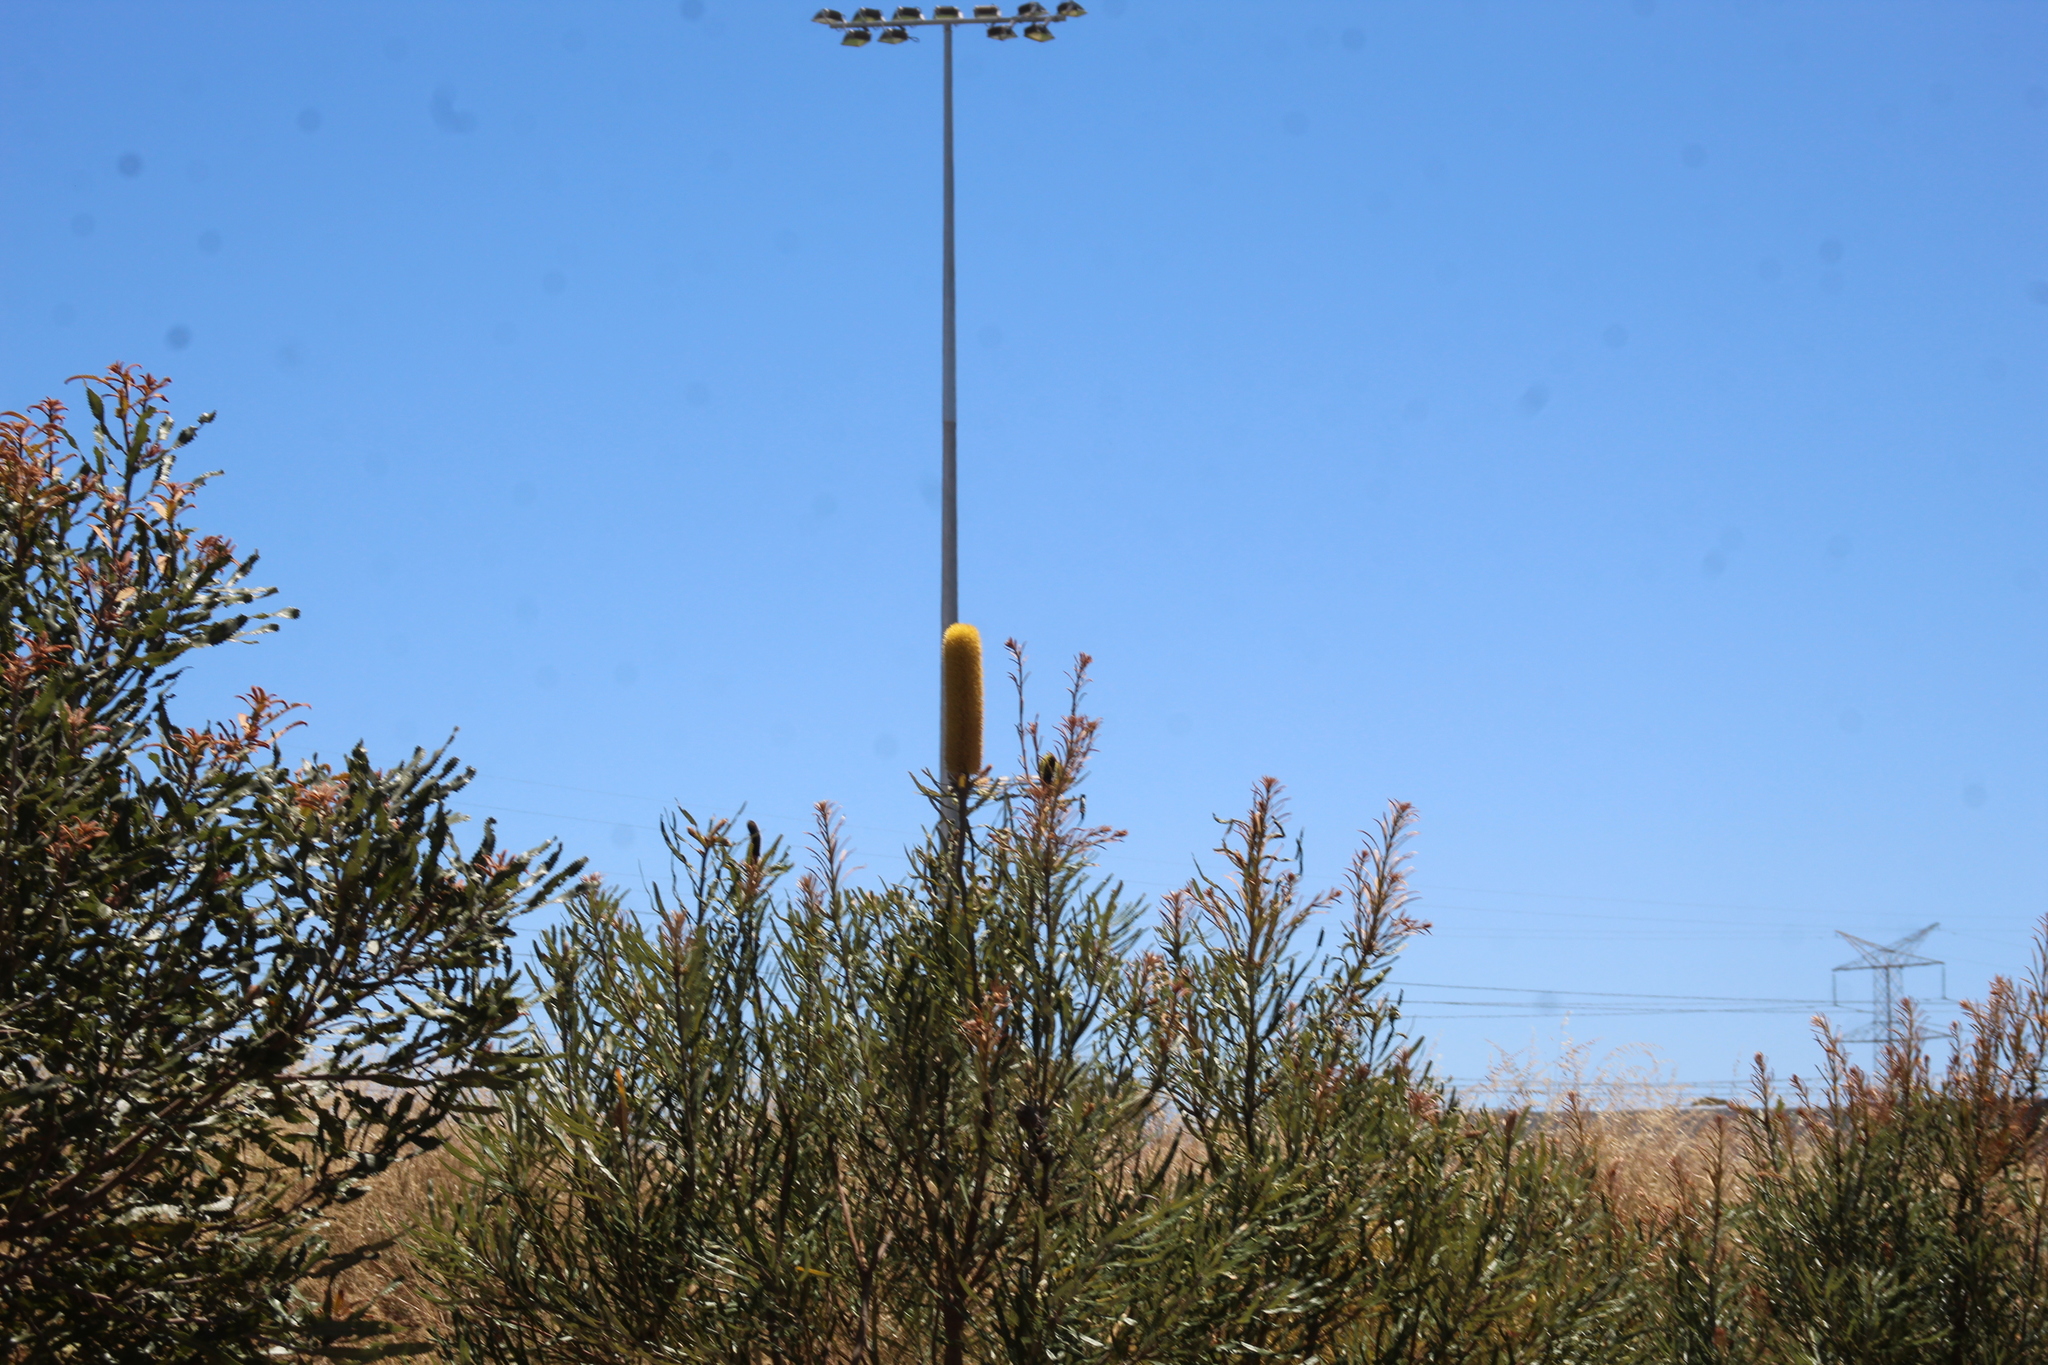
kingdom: Plantae
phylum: Tracheophyta
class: Magnoliopsida
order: Proteales
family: Proteaceae
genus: Banksia
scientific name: Banksia attenuata
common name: Coast banksia
